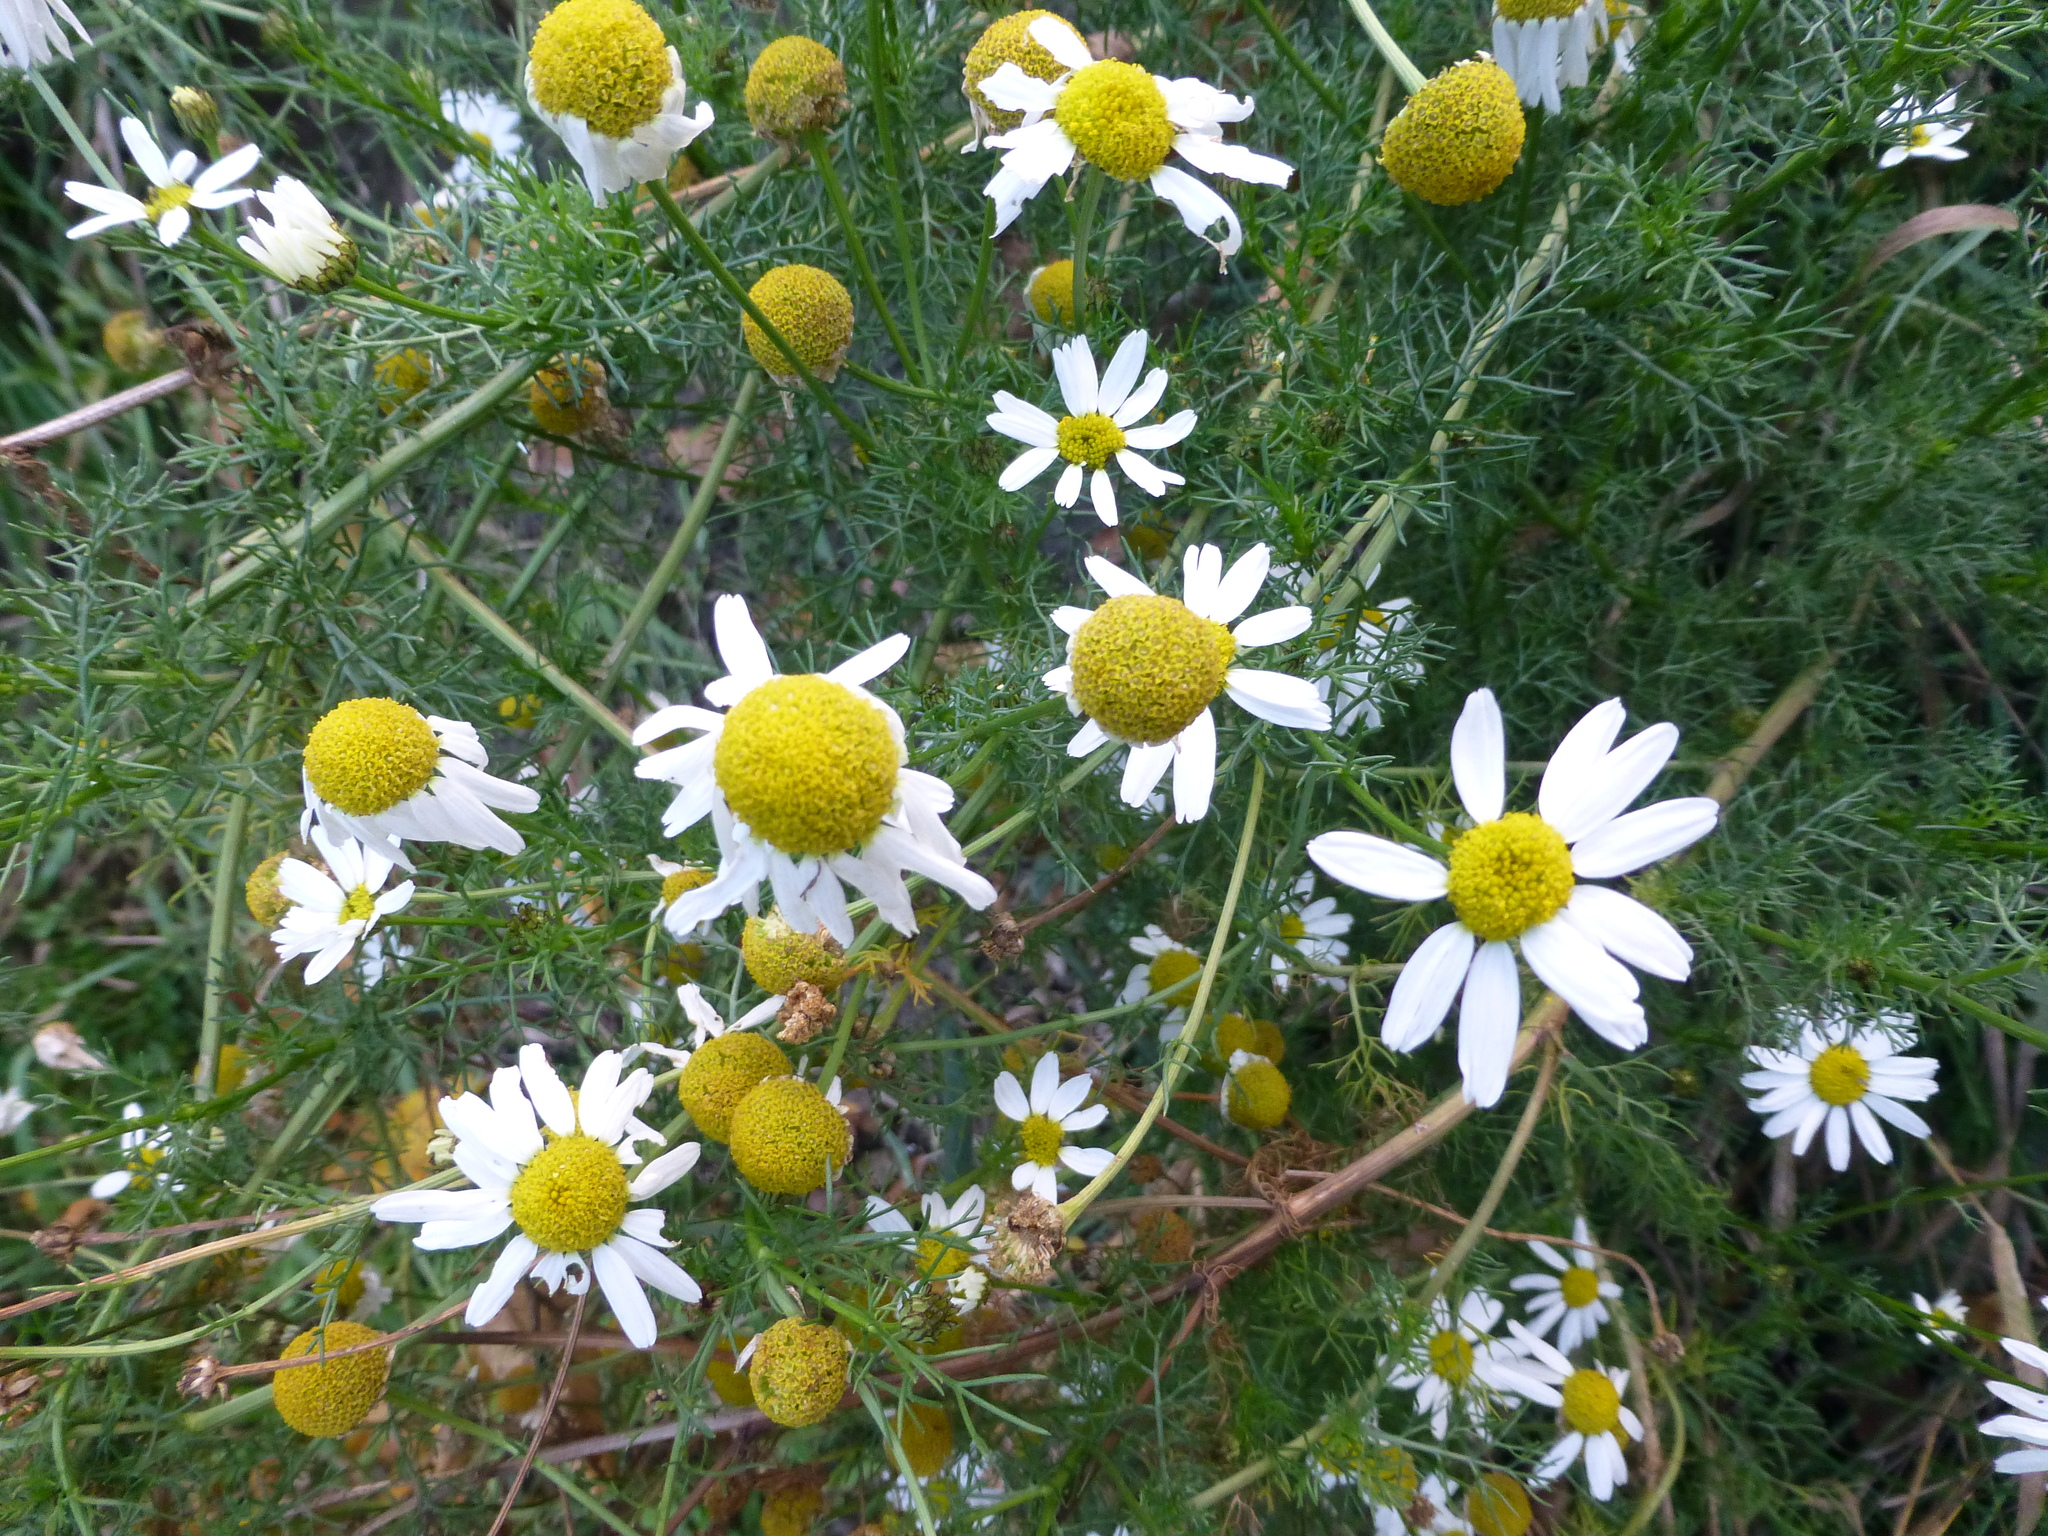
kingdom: Plantae
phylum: Tracheophyta
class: Magnoliopsida
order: Asterales
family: Asteraceae
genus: Tripleurospermum
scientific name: Tripleurospermum inodorum
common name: Scentless mayweed
